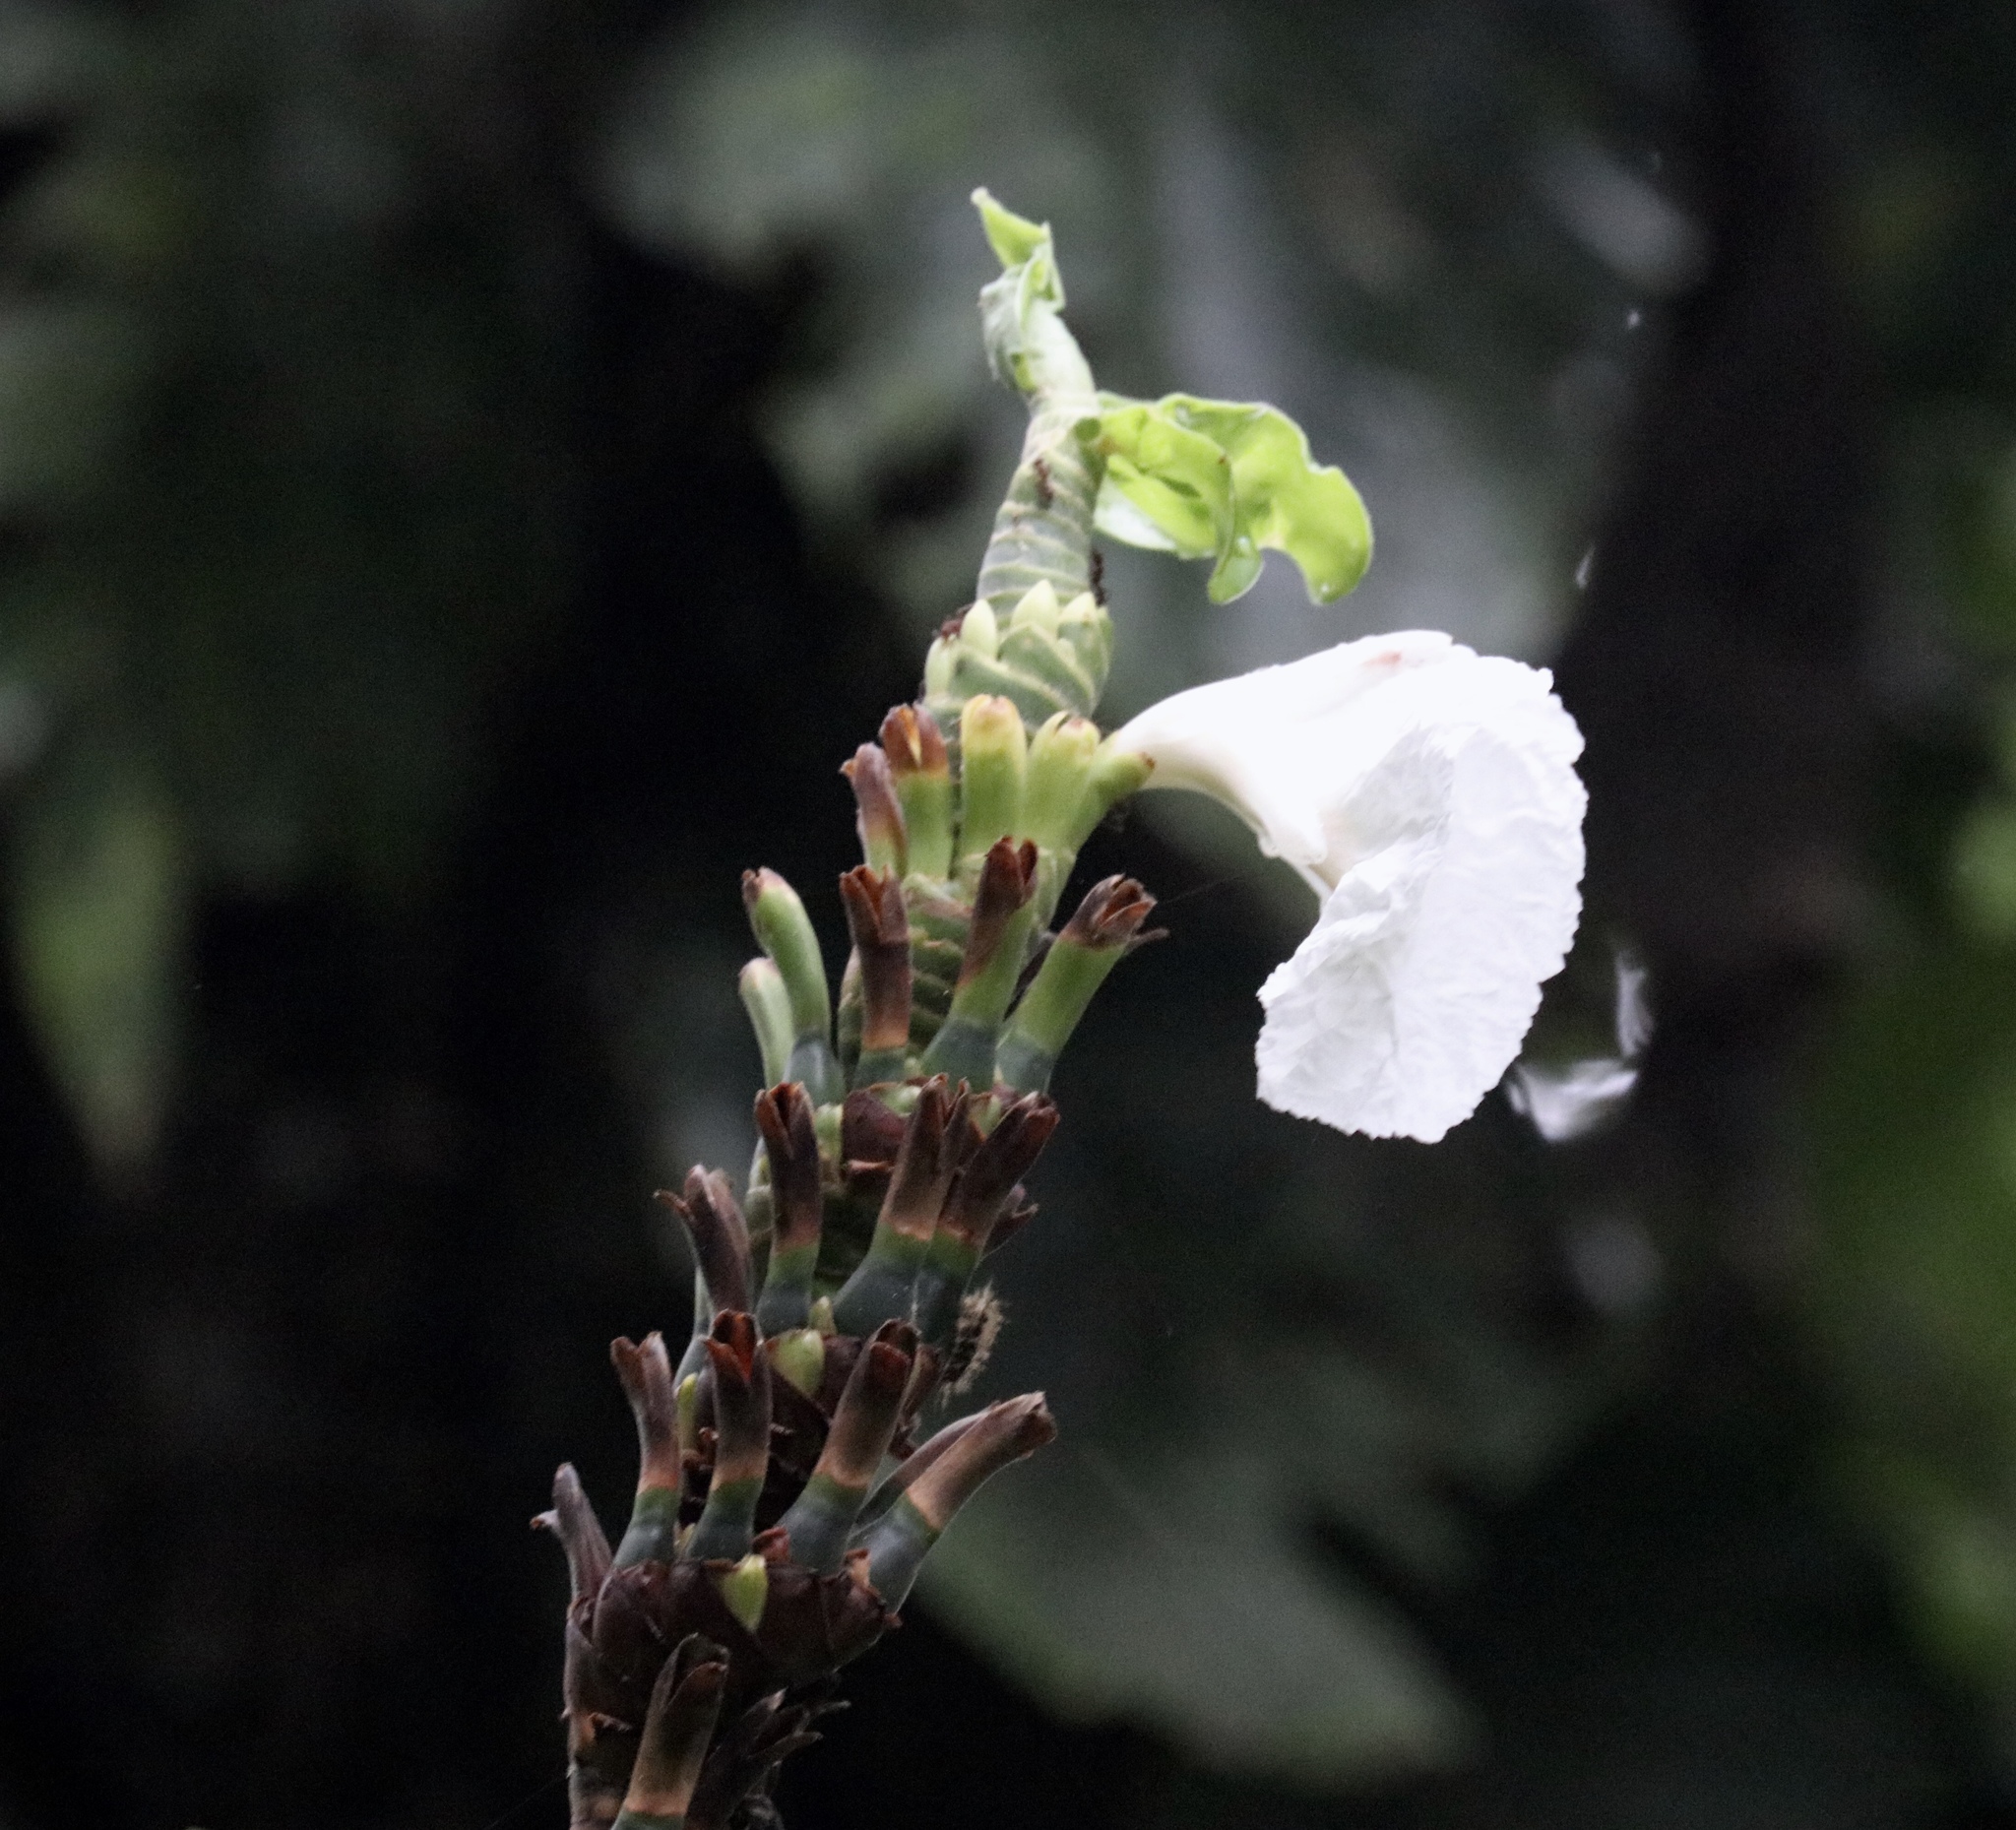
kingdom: Plantae
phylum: Tracheophyta
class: Liliopsida
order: Zingiberales
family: Costaceae
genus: Dimerocostus
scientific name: Dimerocostus strobilaceus
